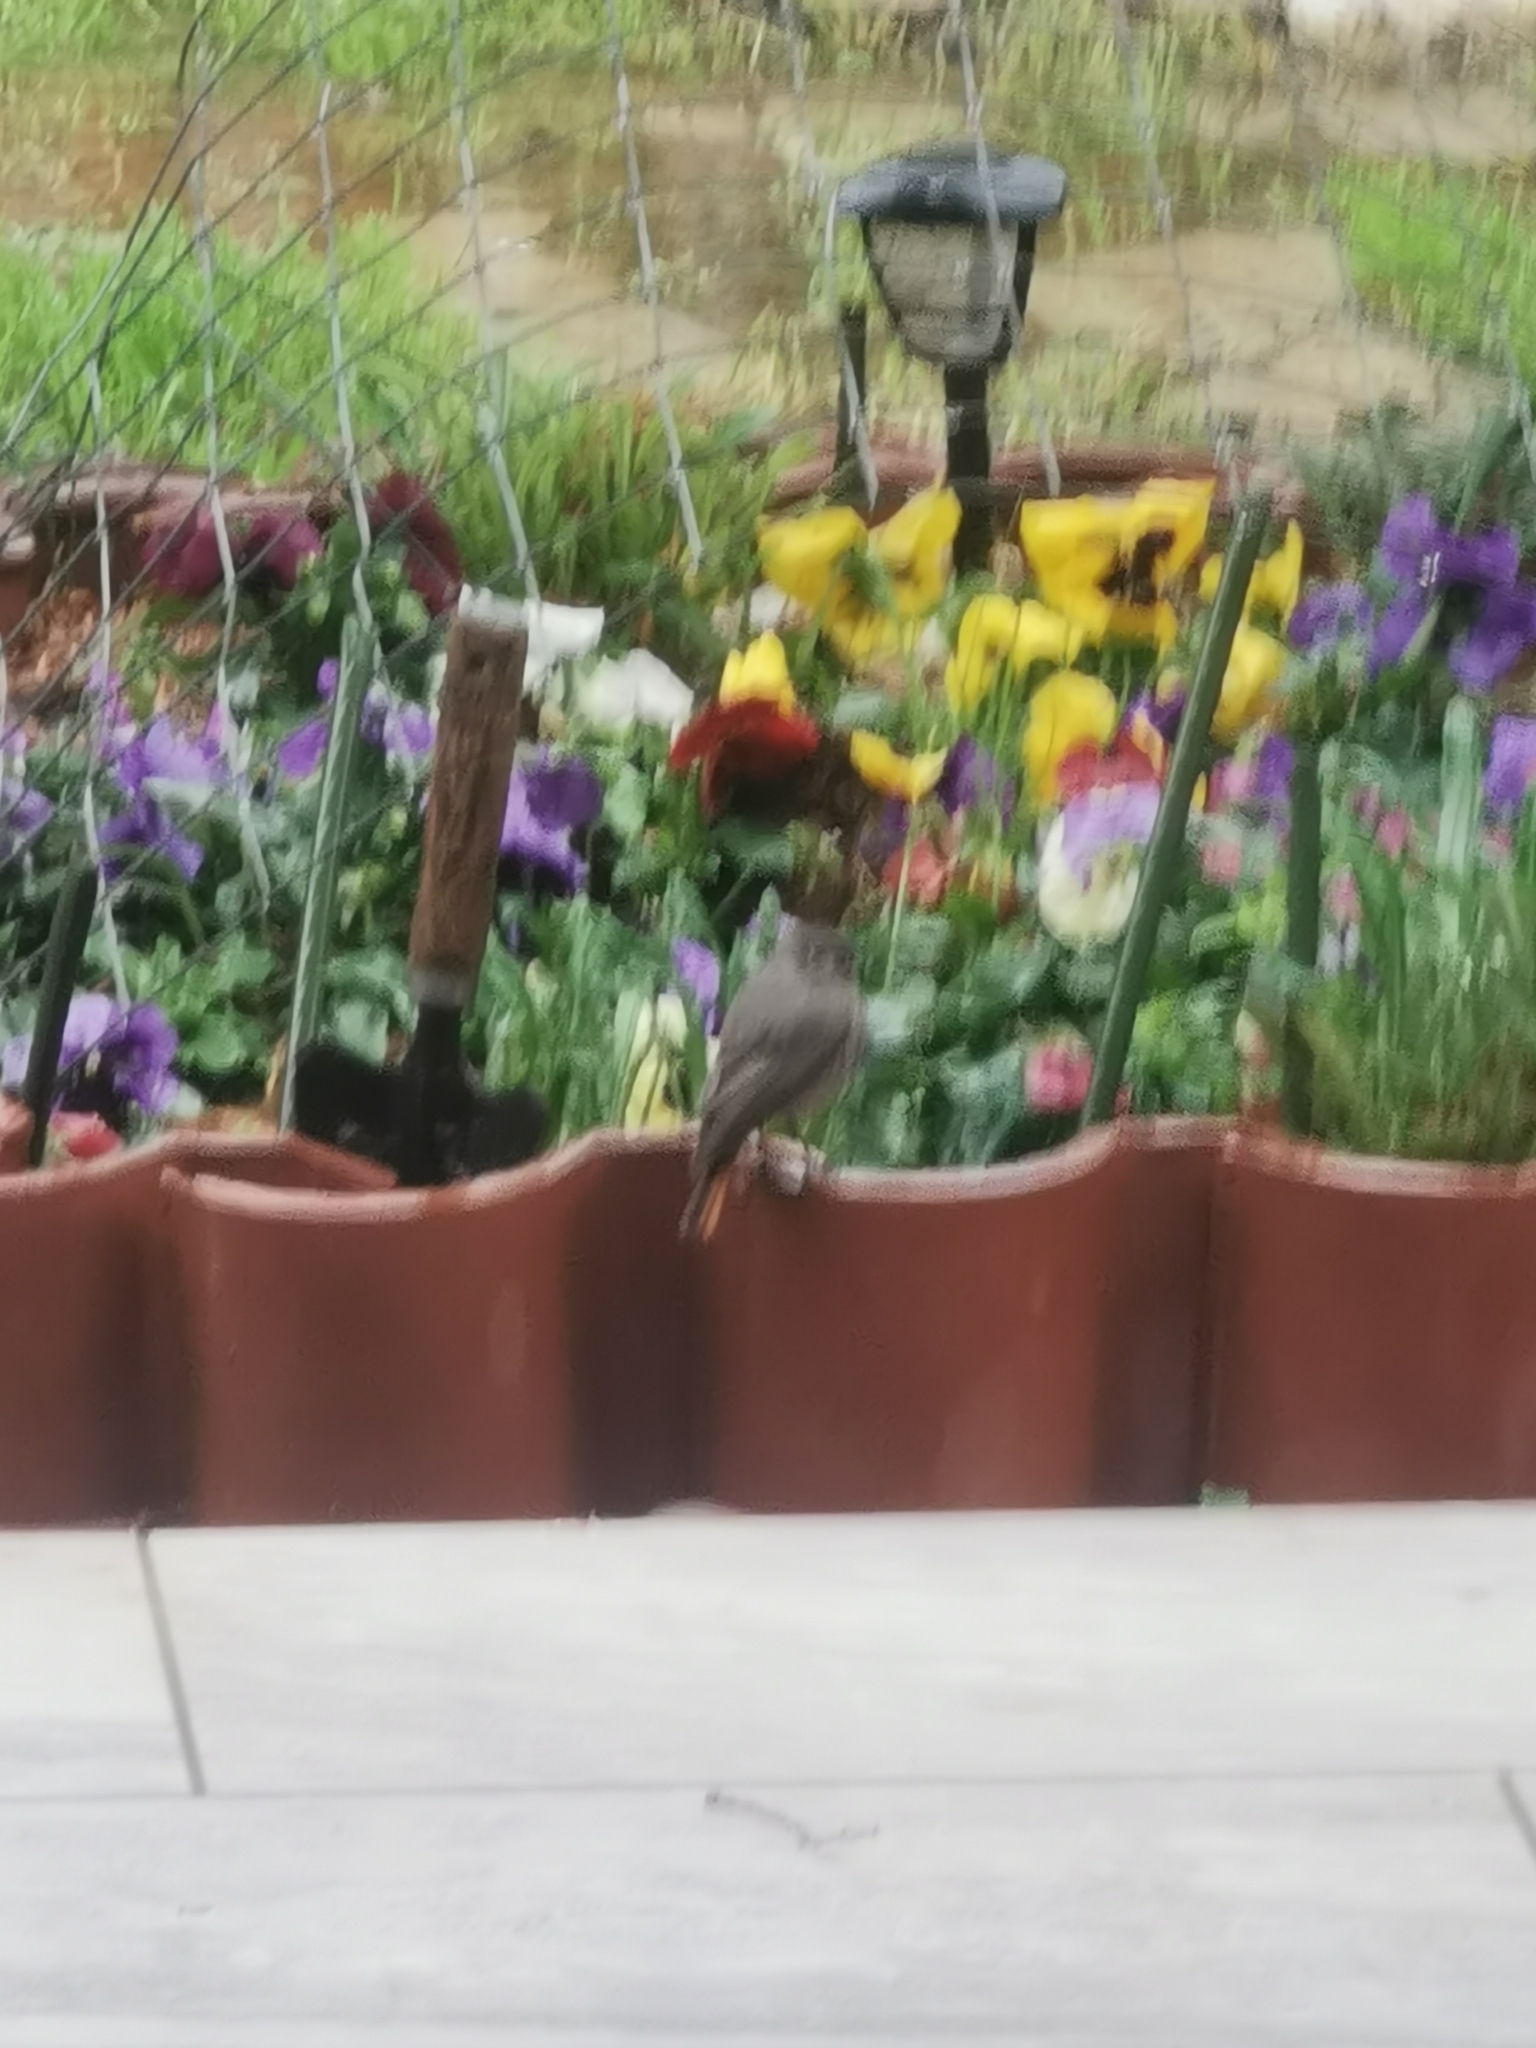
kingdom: Animalia
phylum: Chordata
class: Aves
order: Passeriformes
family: Muscicapidae
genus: Phoenicurus
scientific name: Phoenicurus ochruros
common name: Black redstart
